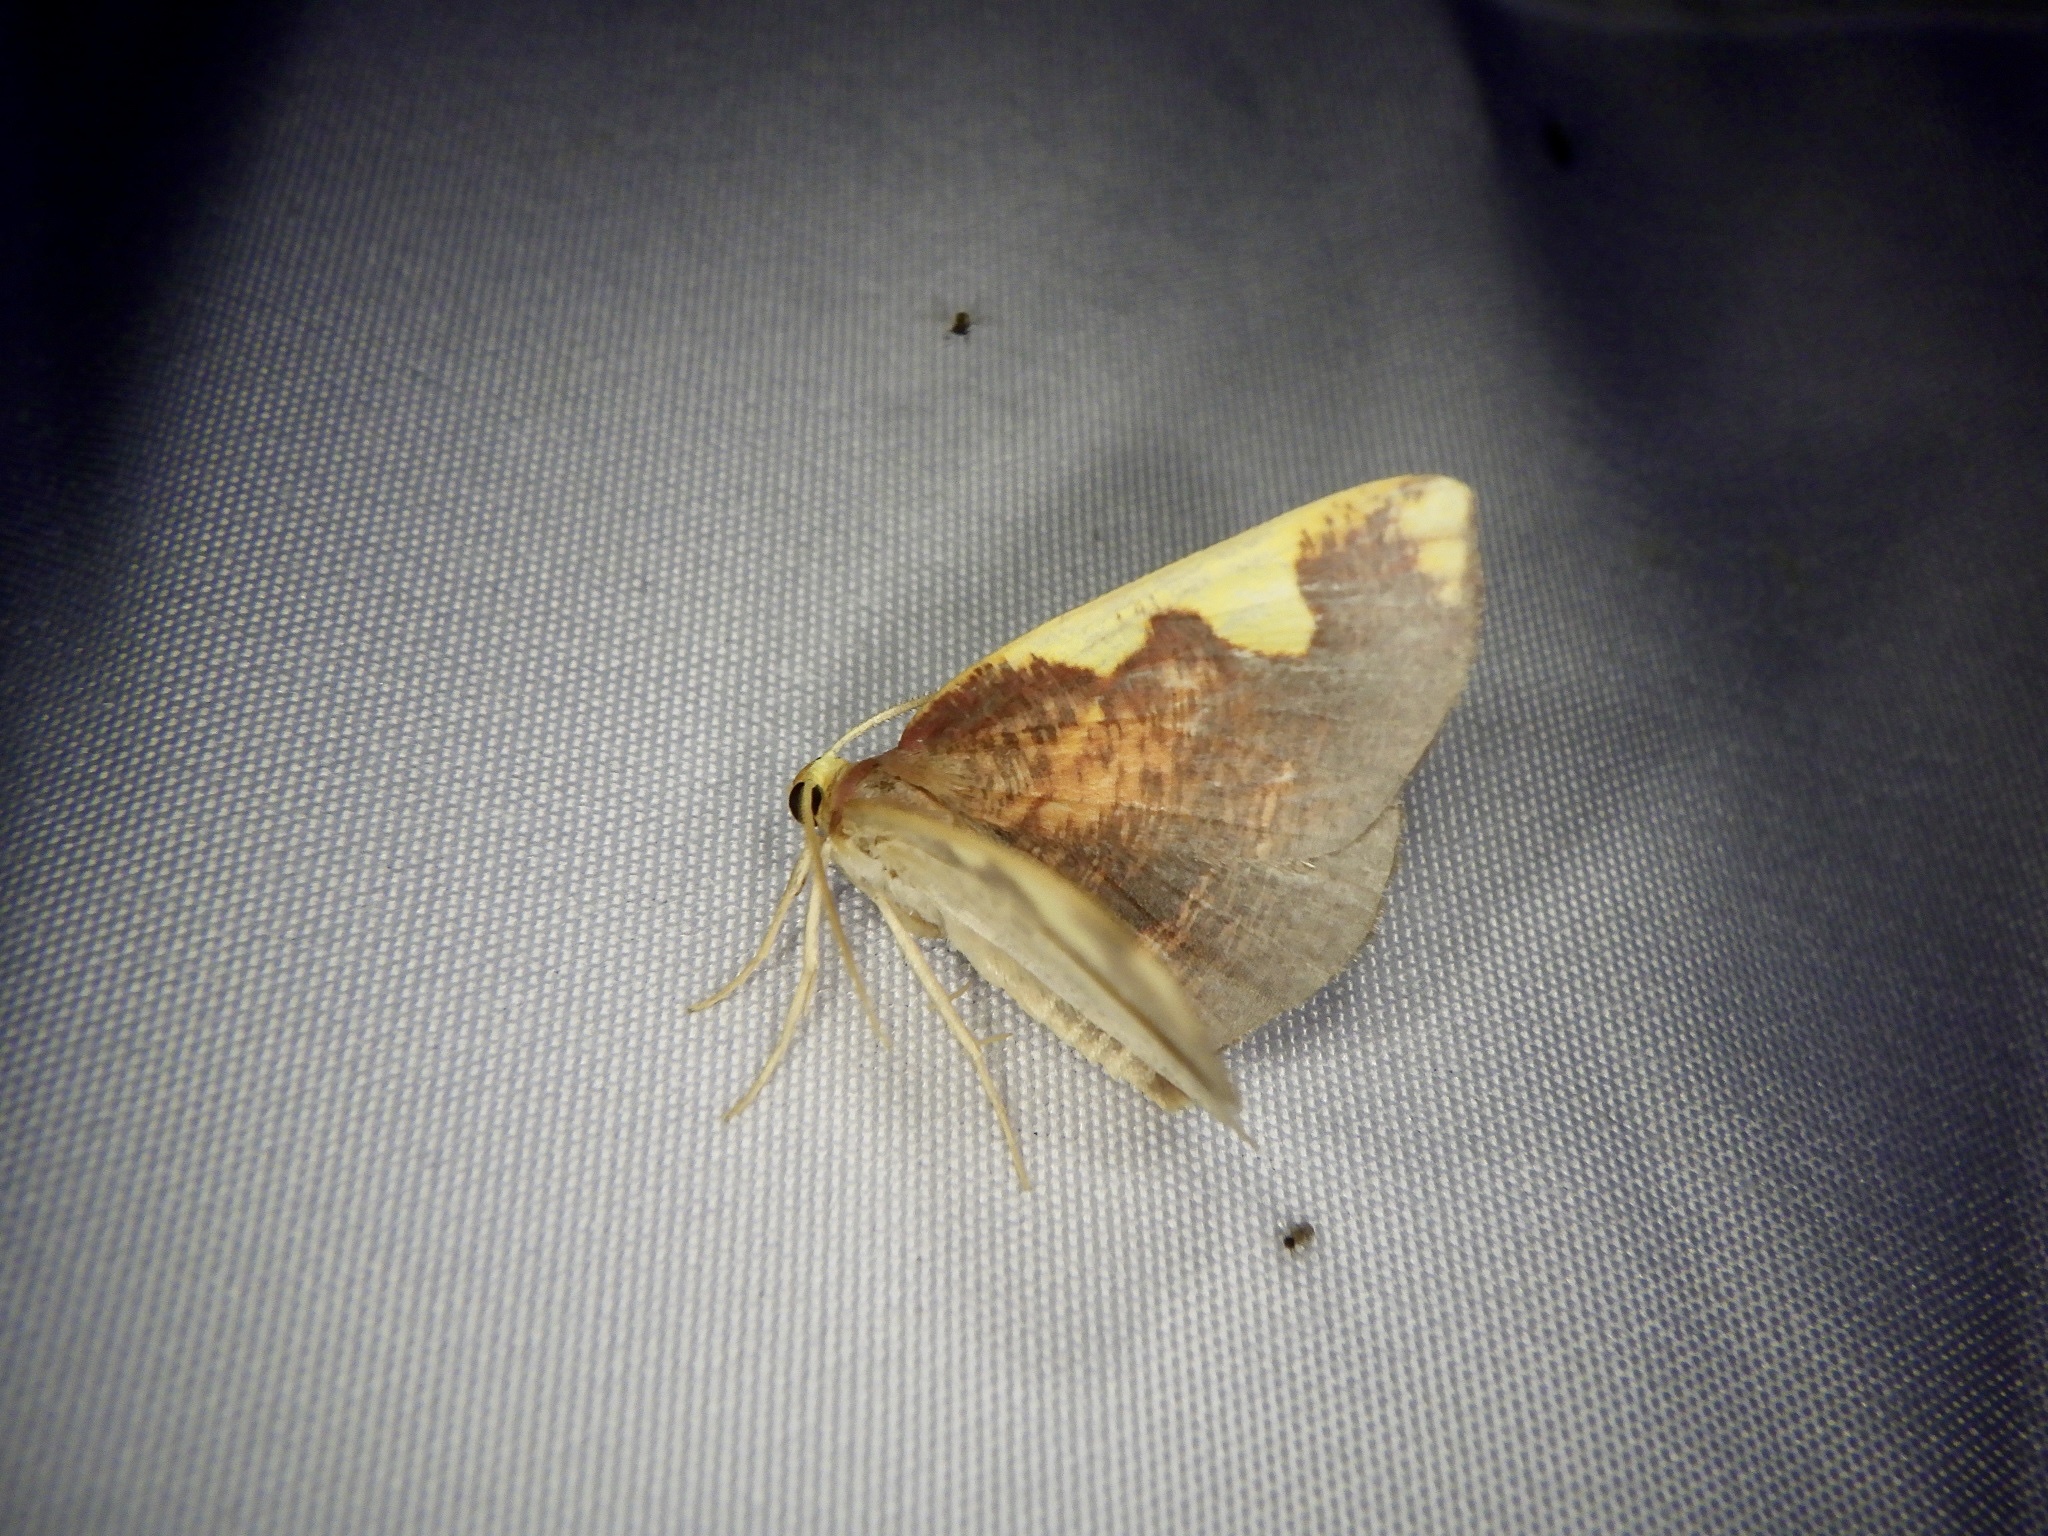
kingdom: Animalia
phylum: Arthropoda
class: Insecta
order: Lepidoptera
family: Geometridae
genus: Nothomiza
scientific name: Nothomiza formosa
